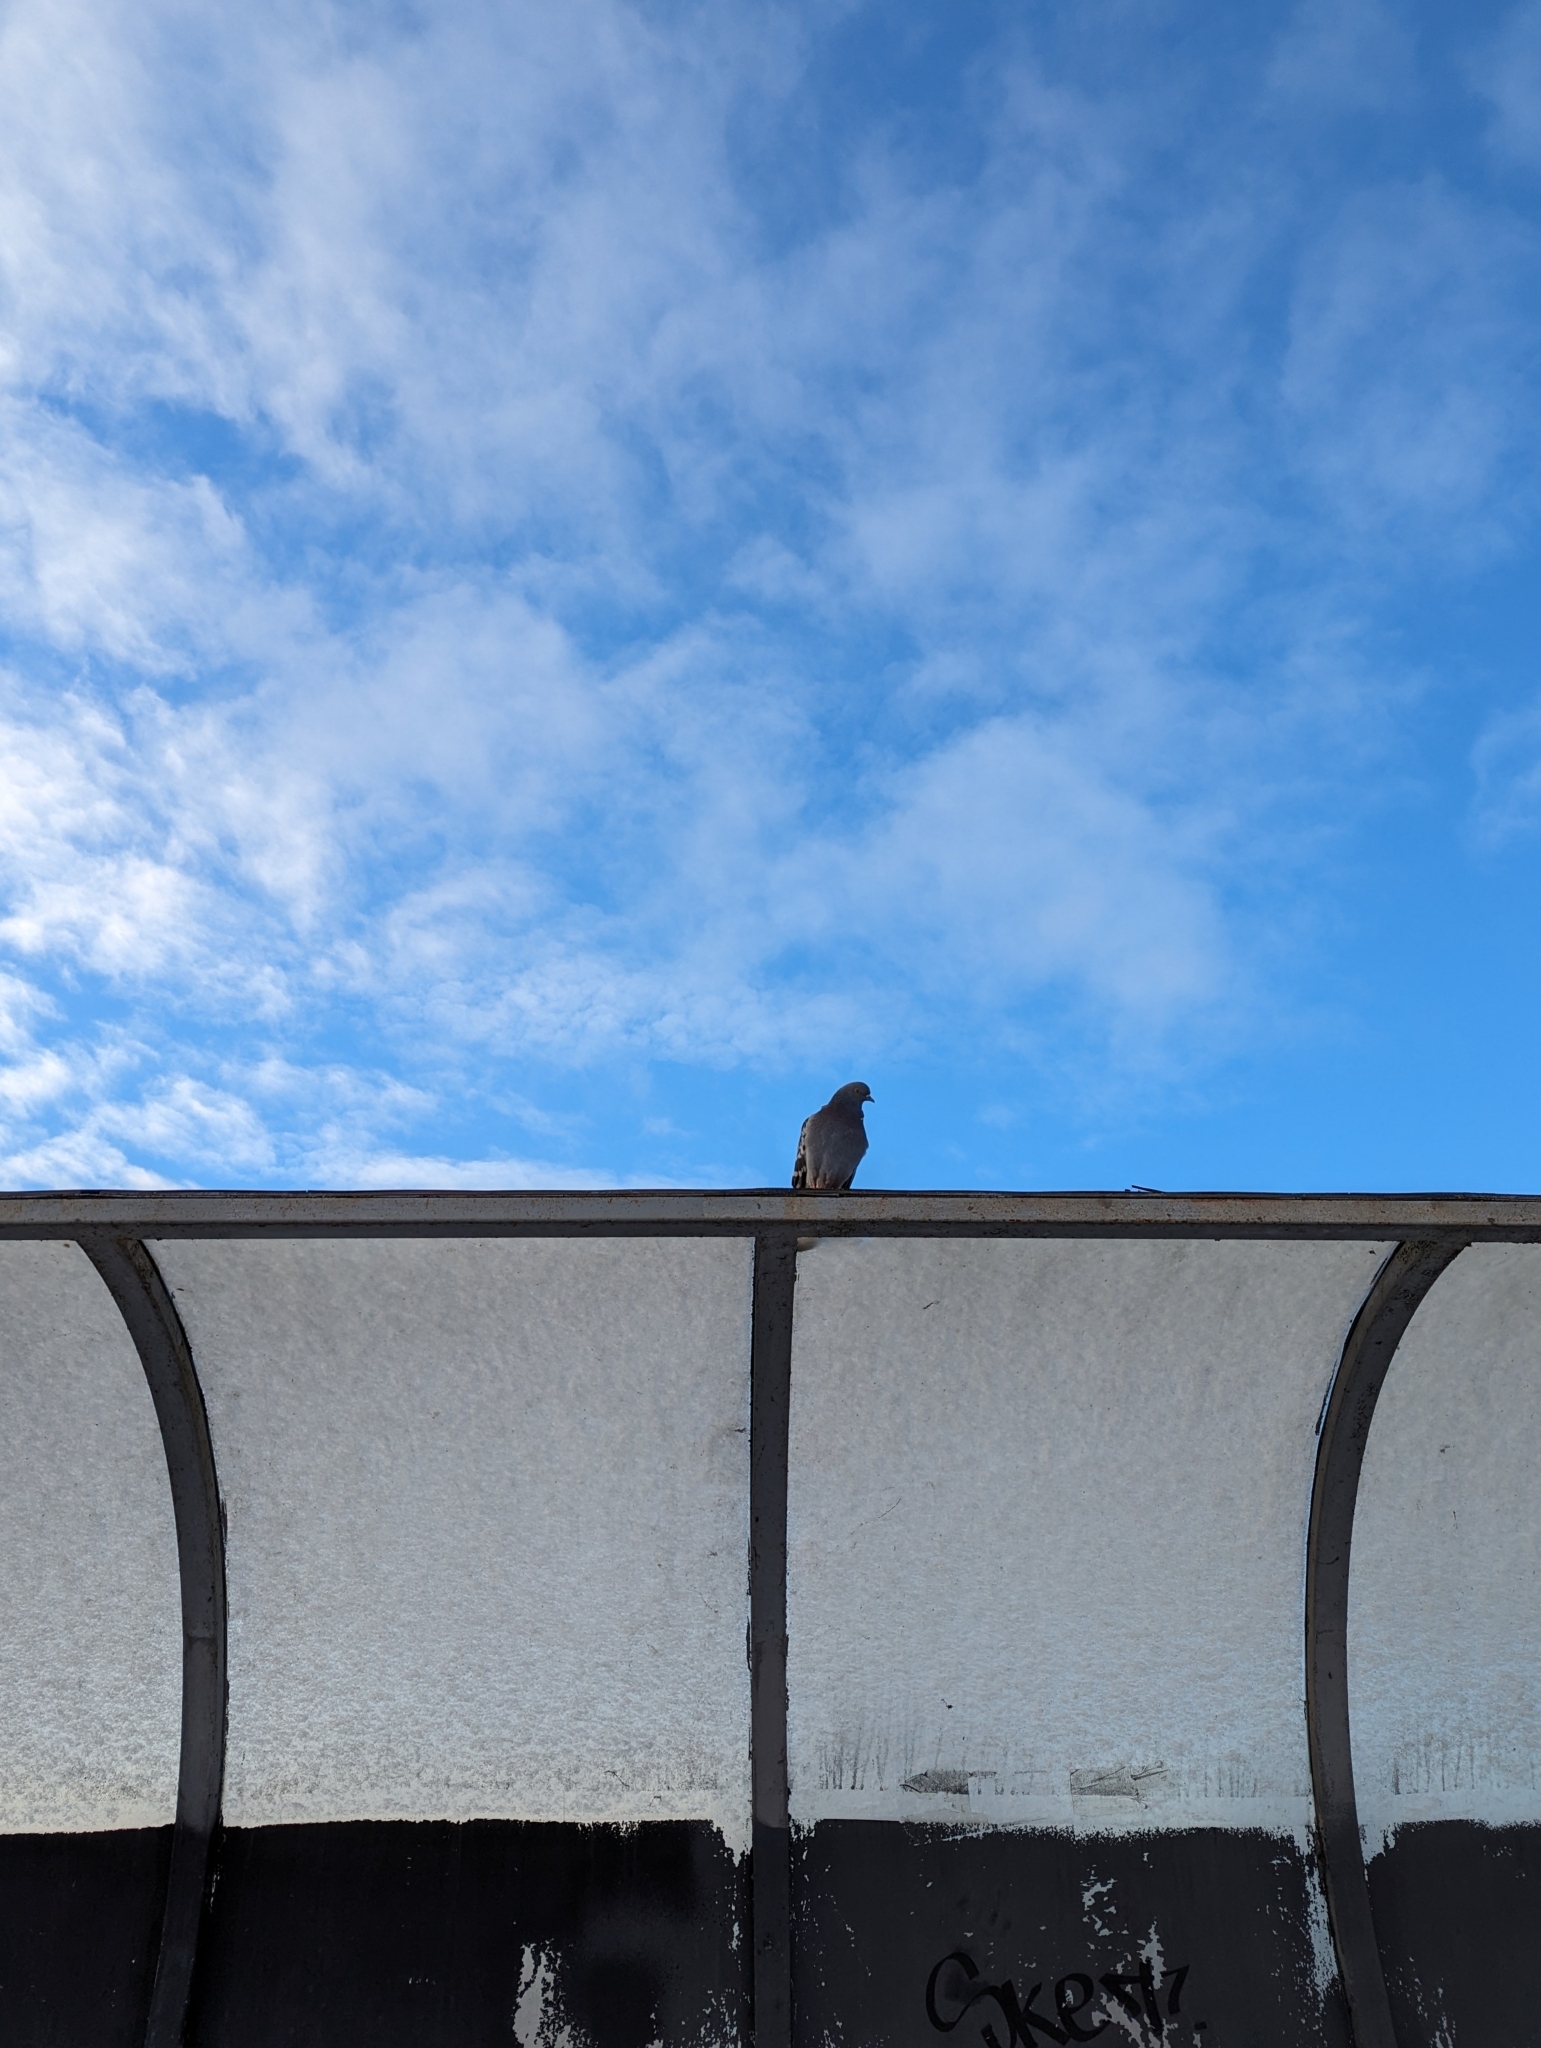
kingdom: Animalia
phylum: Chordata
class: Aves
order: Columbiformes
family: Columbidae
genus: Columba
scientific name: Columba livia
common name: Rock pigeon
